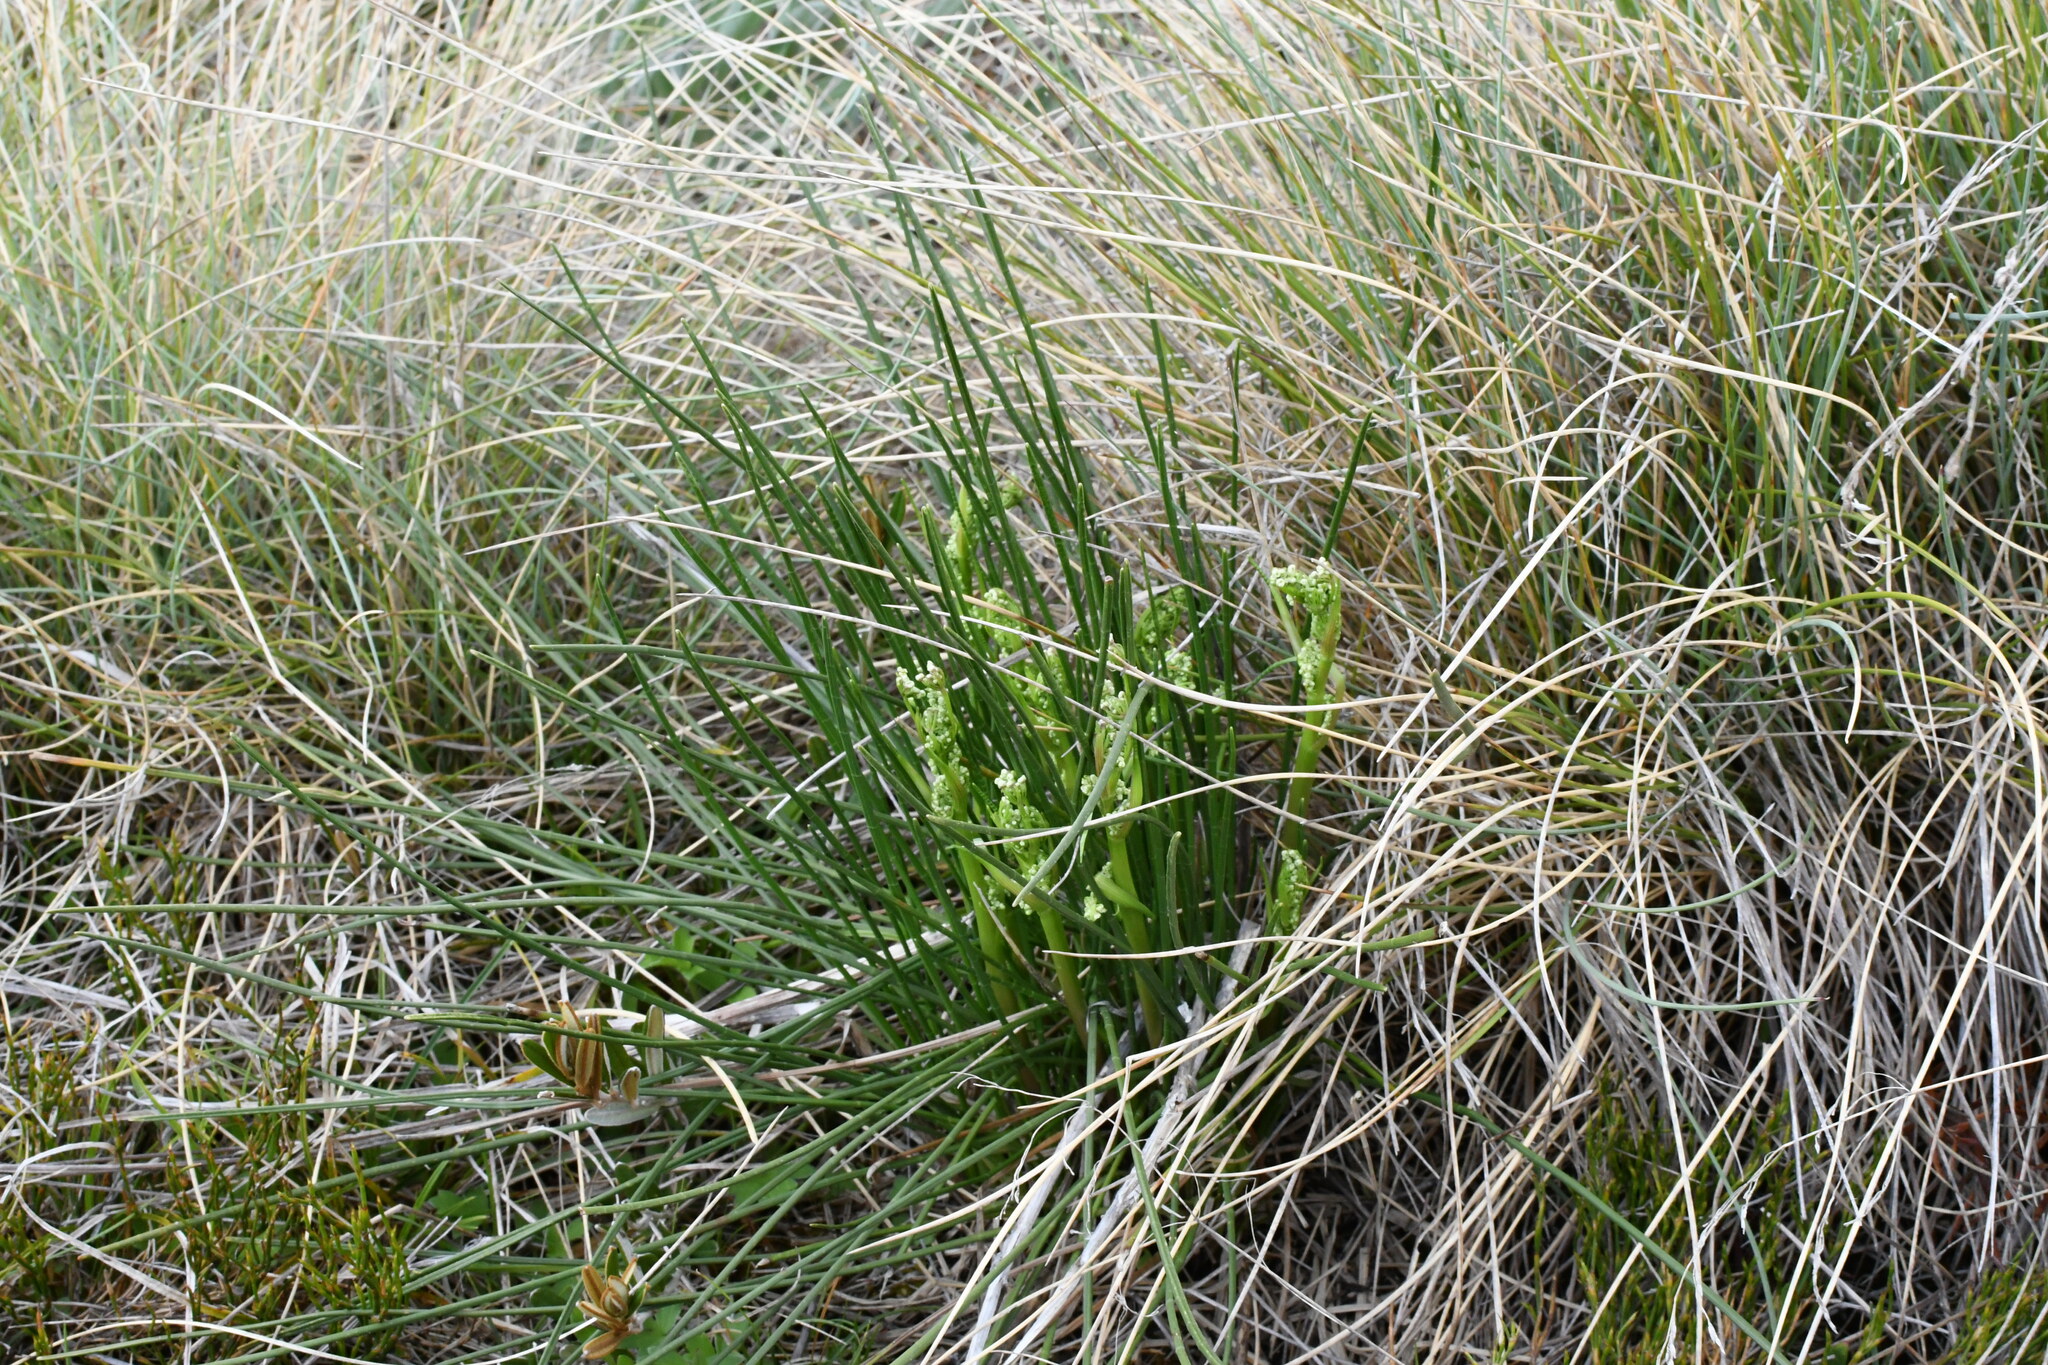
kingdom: Plantae
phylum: Tracheophyta
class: Magnoliopsida
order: Apiales
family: Apiaceae
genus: Aciphylla
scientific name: Aciphylla simplicifolia
